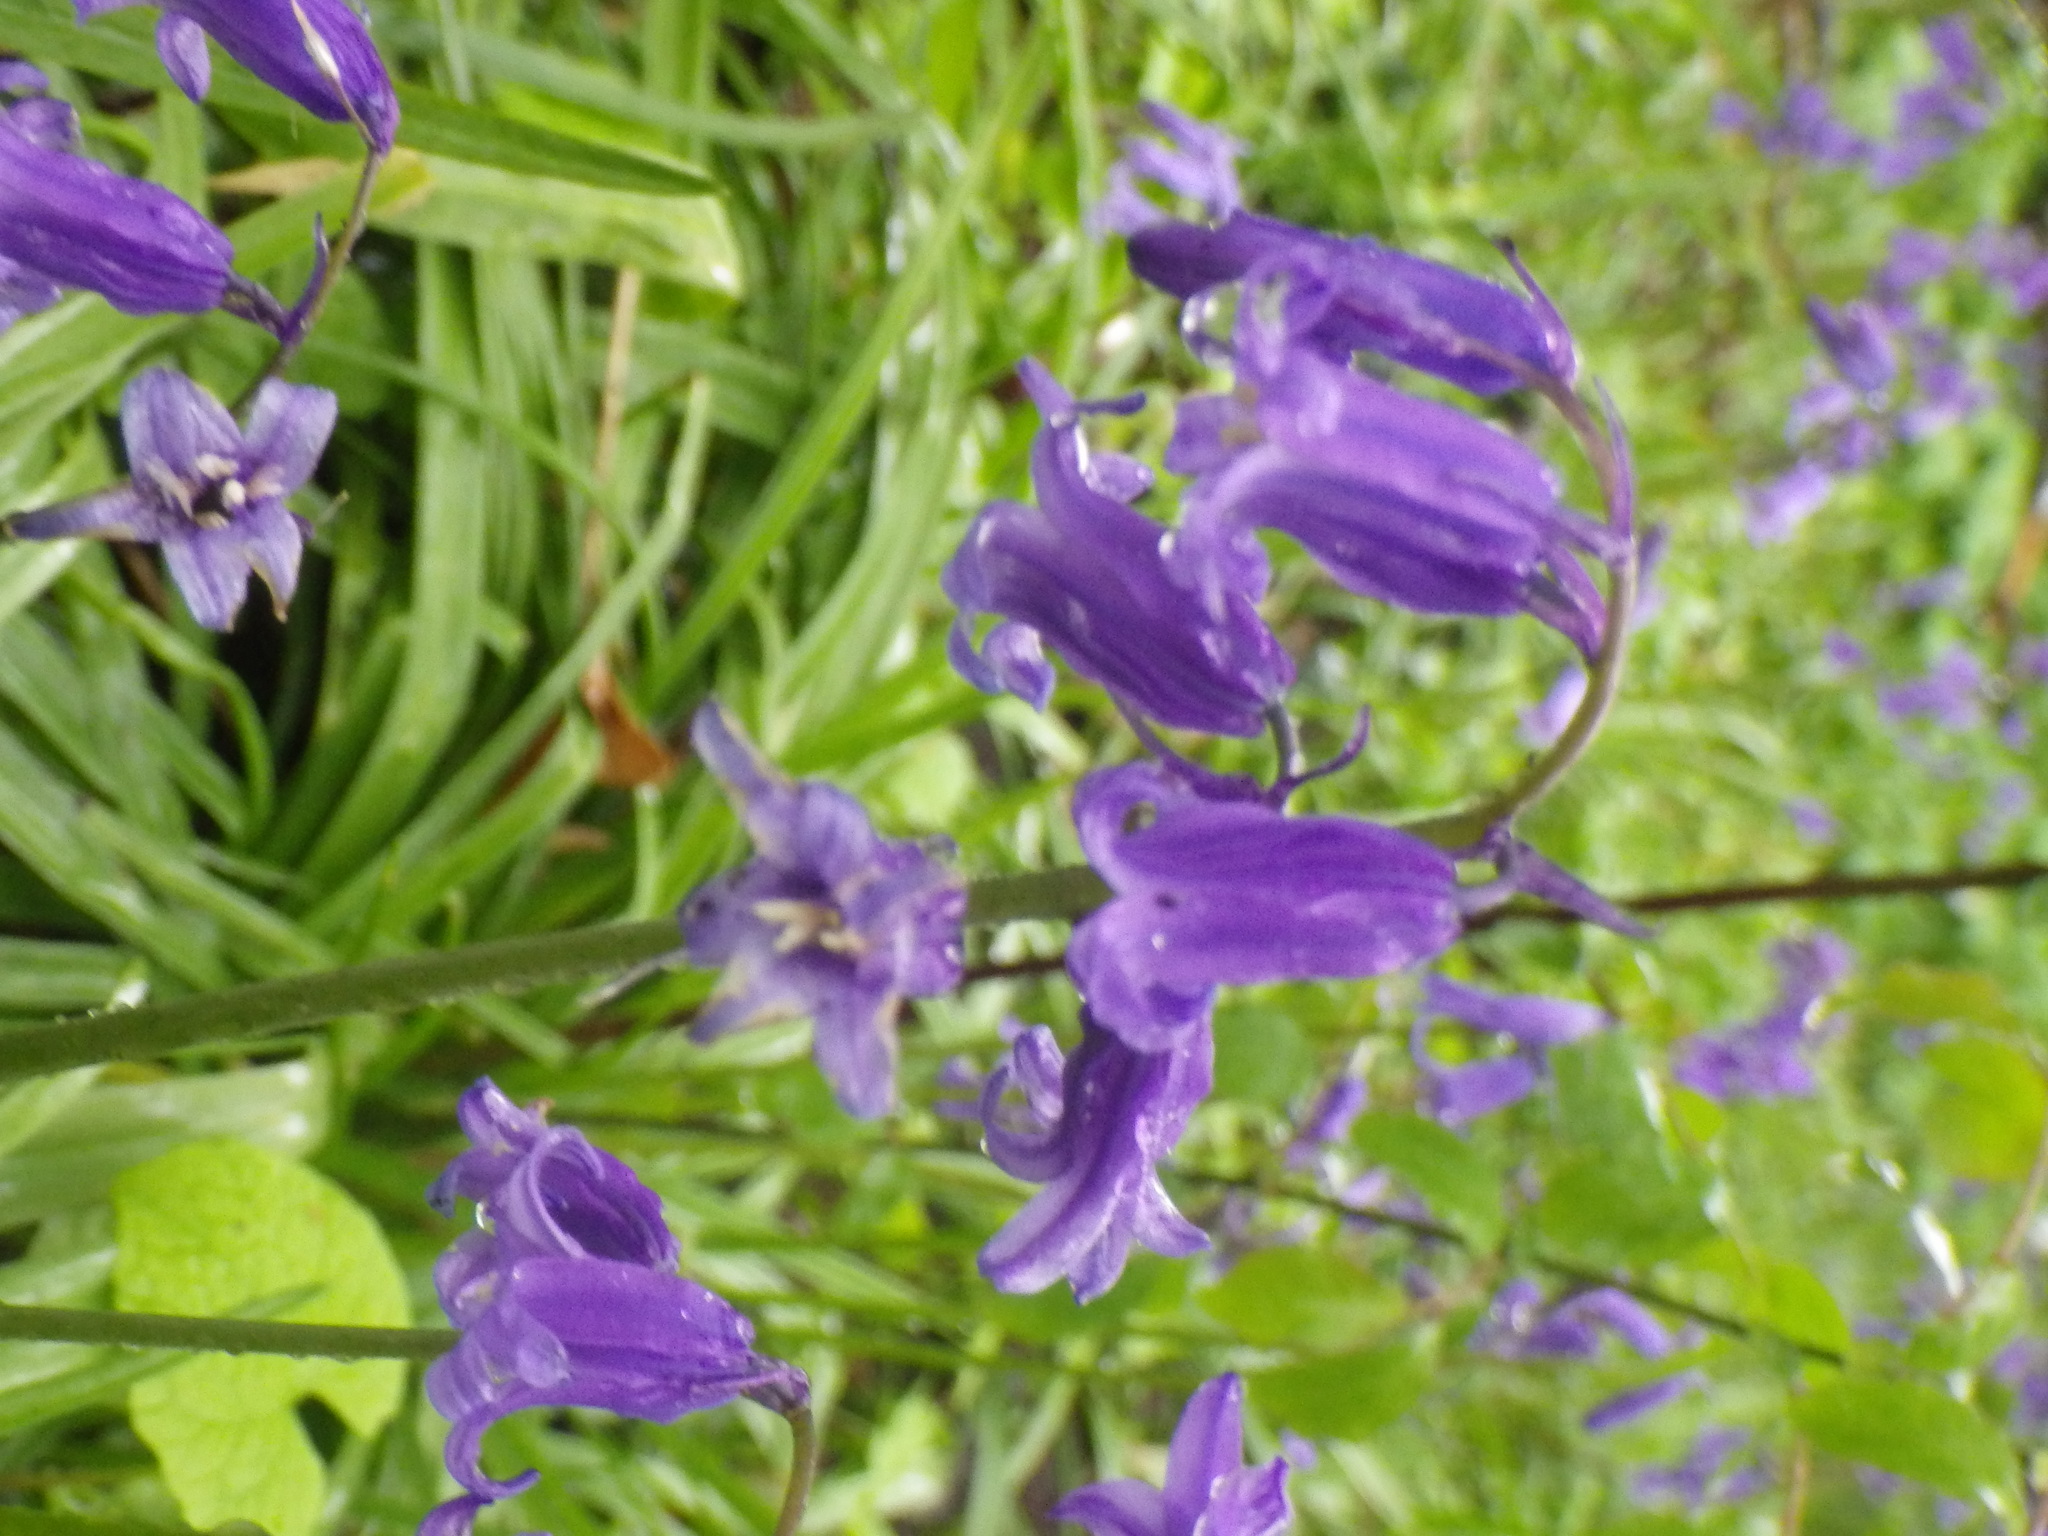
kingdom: Plantae
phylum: Tracheophyta
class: Liliopsida
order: Asparagales
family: Asparagaceae
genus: Hyacinthoides
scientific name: Hyacinthoides non-scripta
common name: Bluebell
